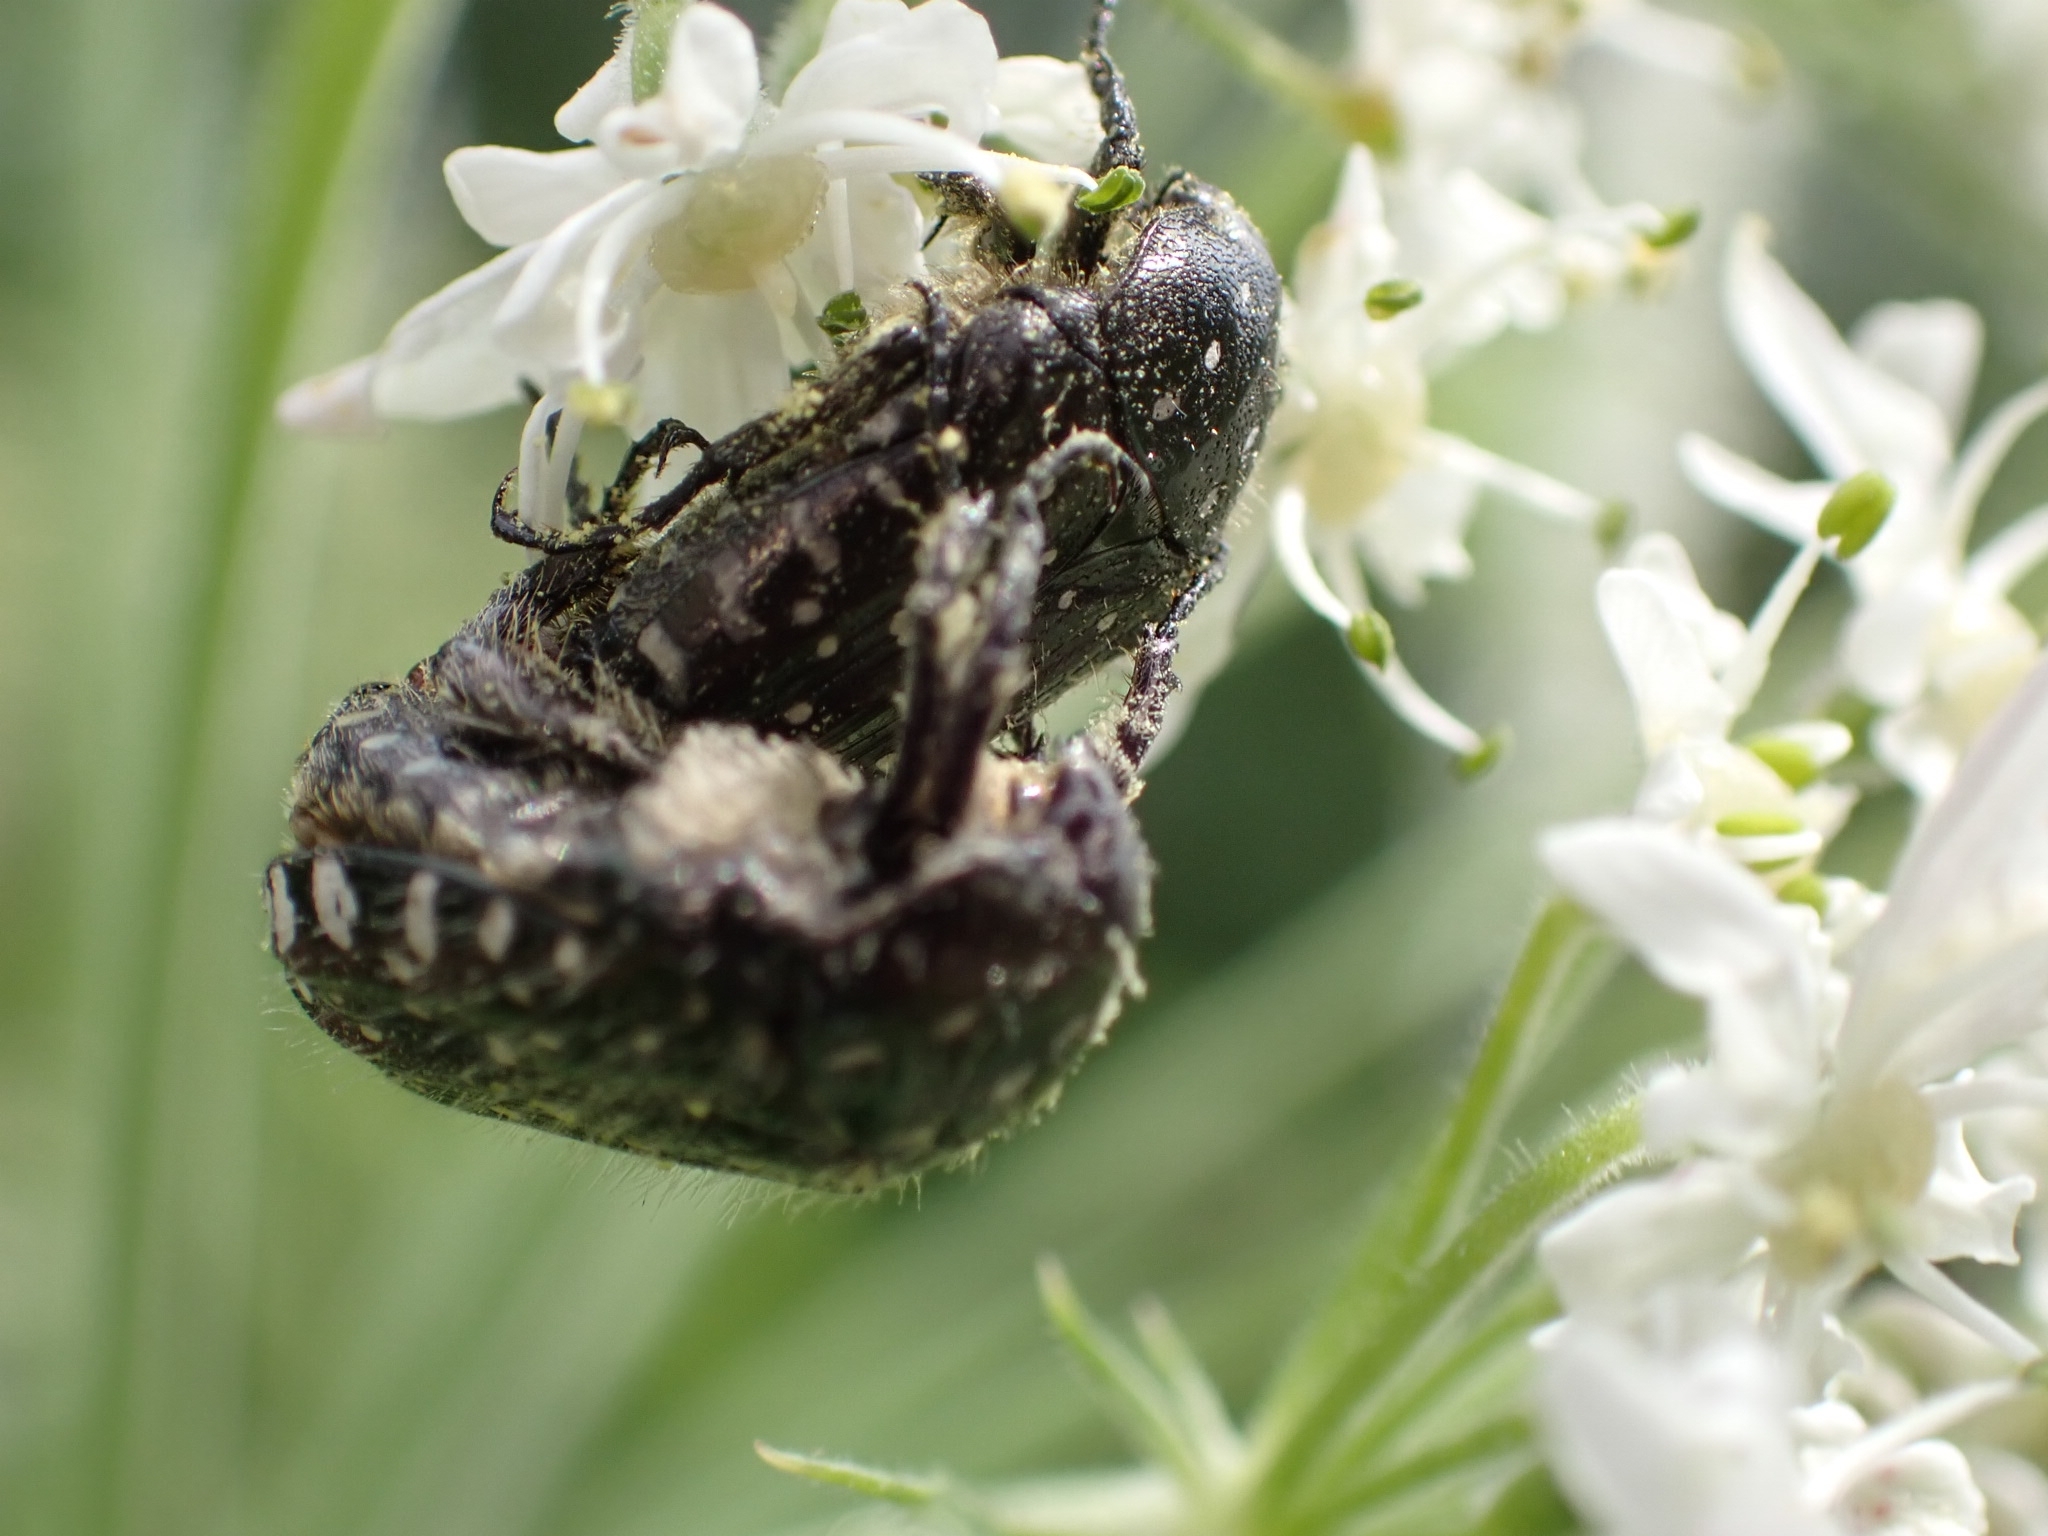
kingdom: Animalia
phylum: Arthropoda
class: Insecta
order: Coleoptera
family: Scarabaeidae
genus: Oxythyrea
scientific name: Oxythyrea funesta
